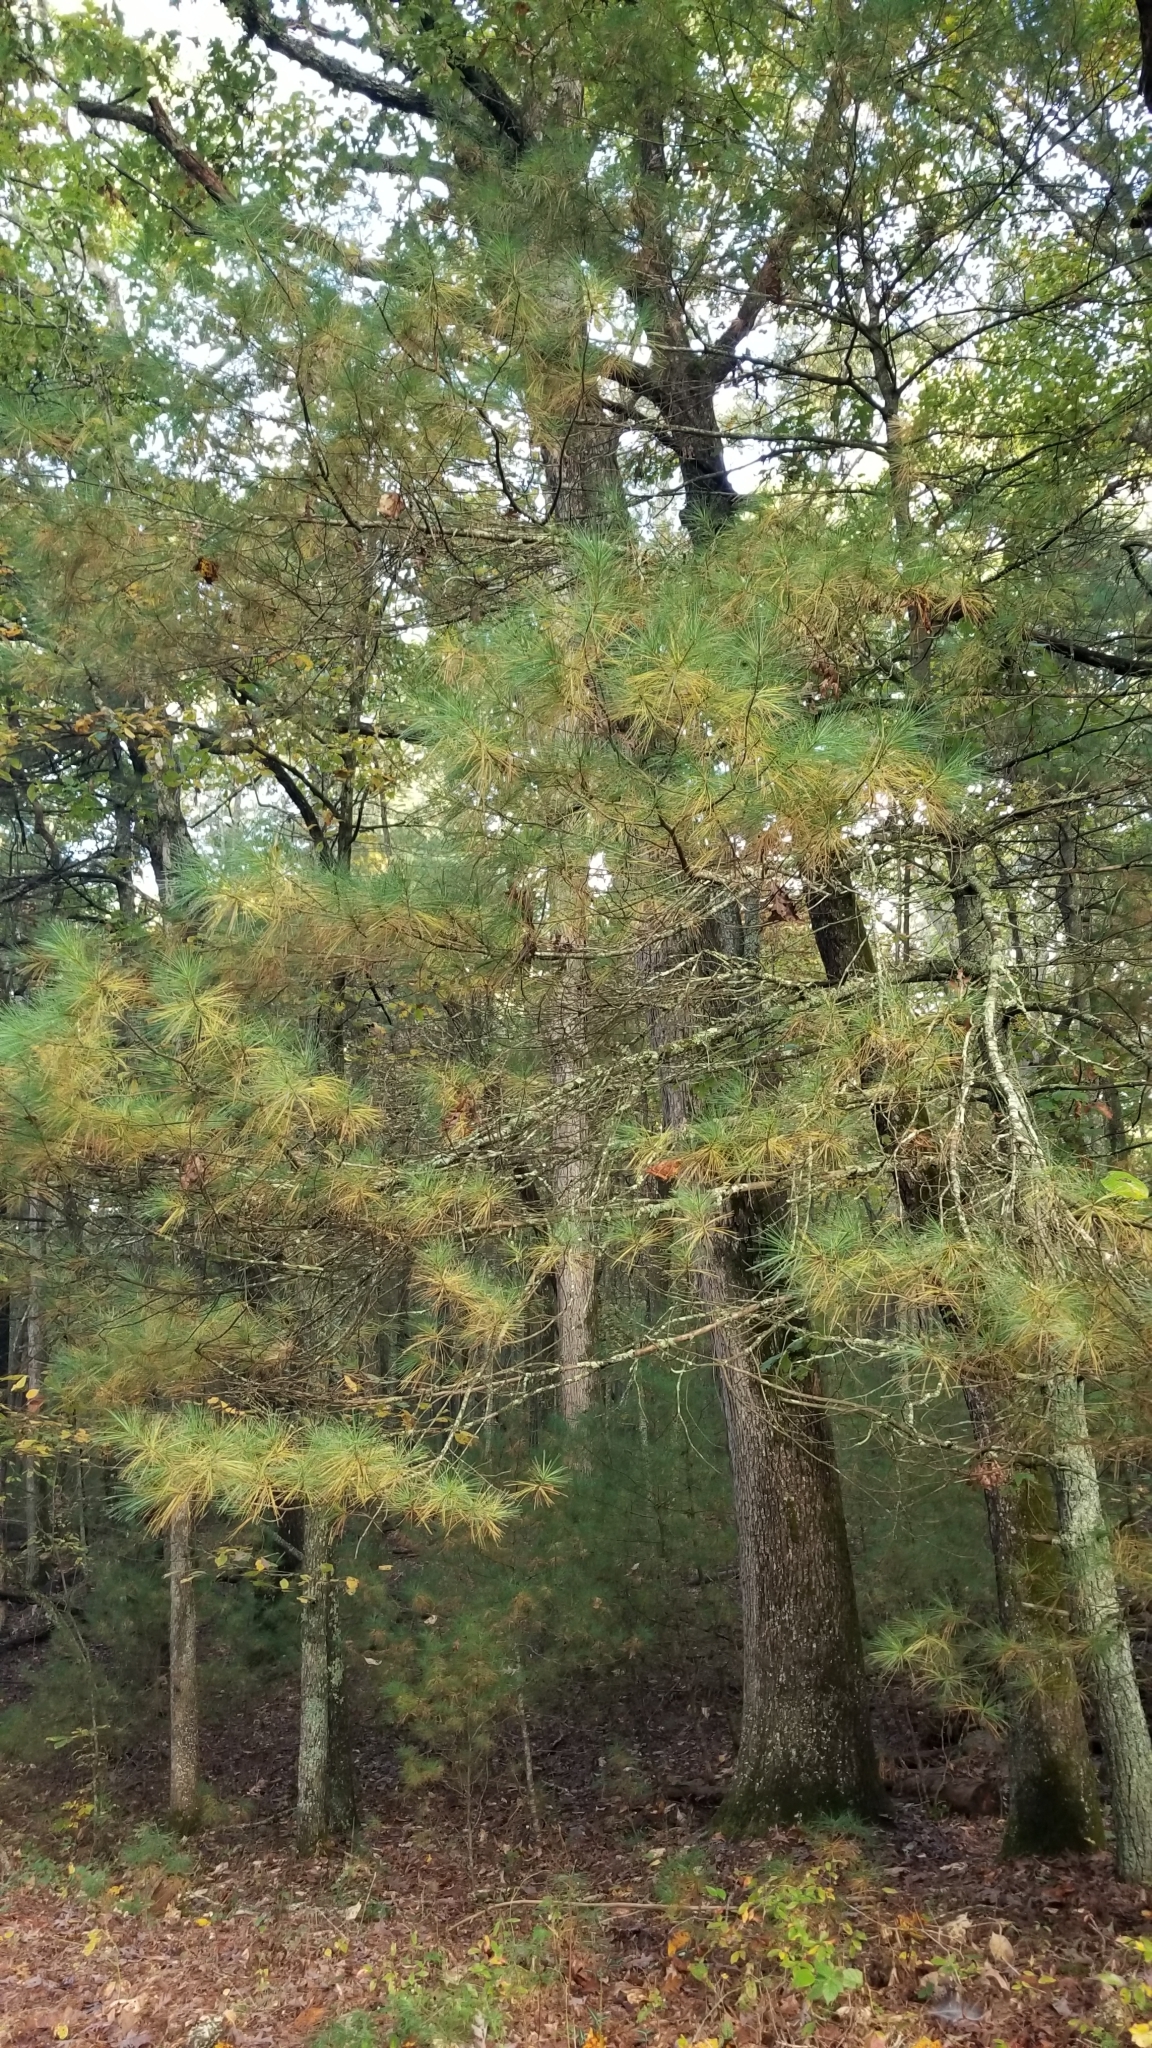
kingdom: Plantae
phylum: Tracheophyta
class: Pinopsida
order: Pinales
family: Pinaceae
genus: Pinus
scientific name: Pinus strobus
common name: Weymouth pine
